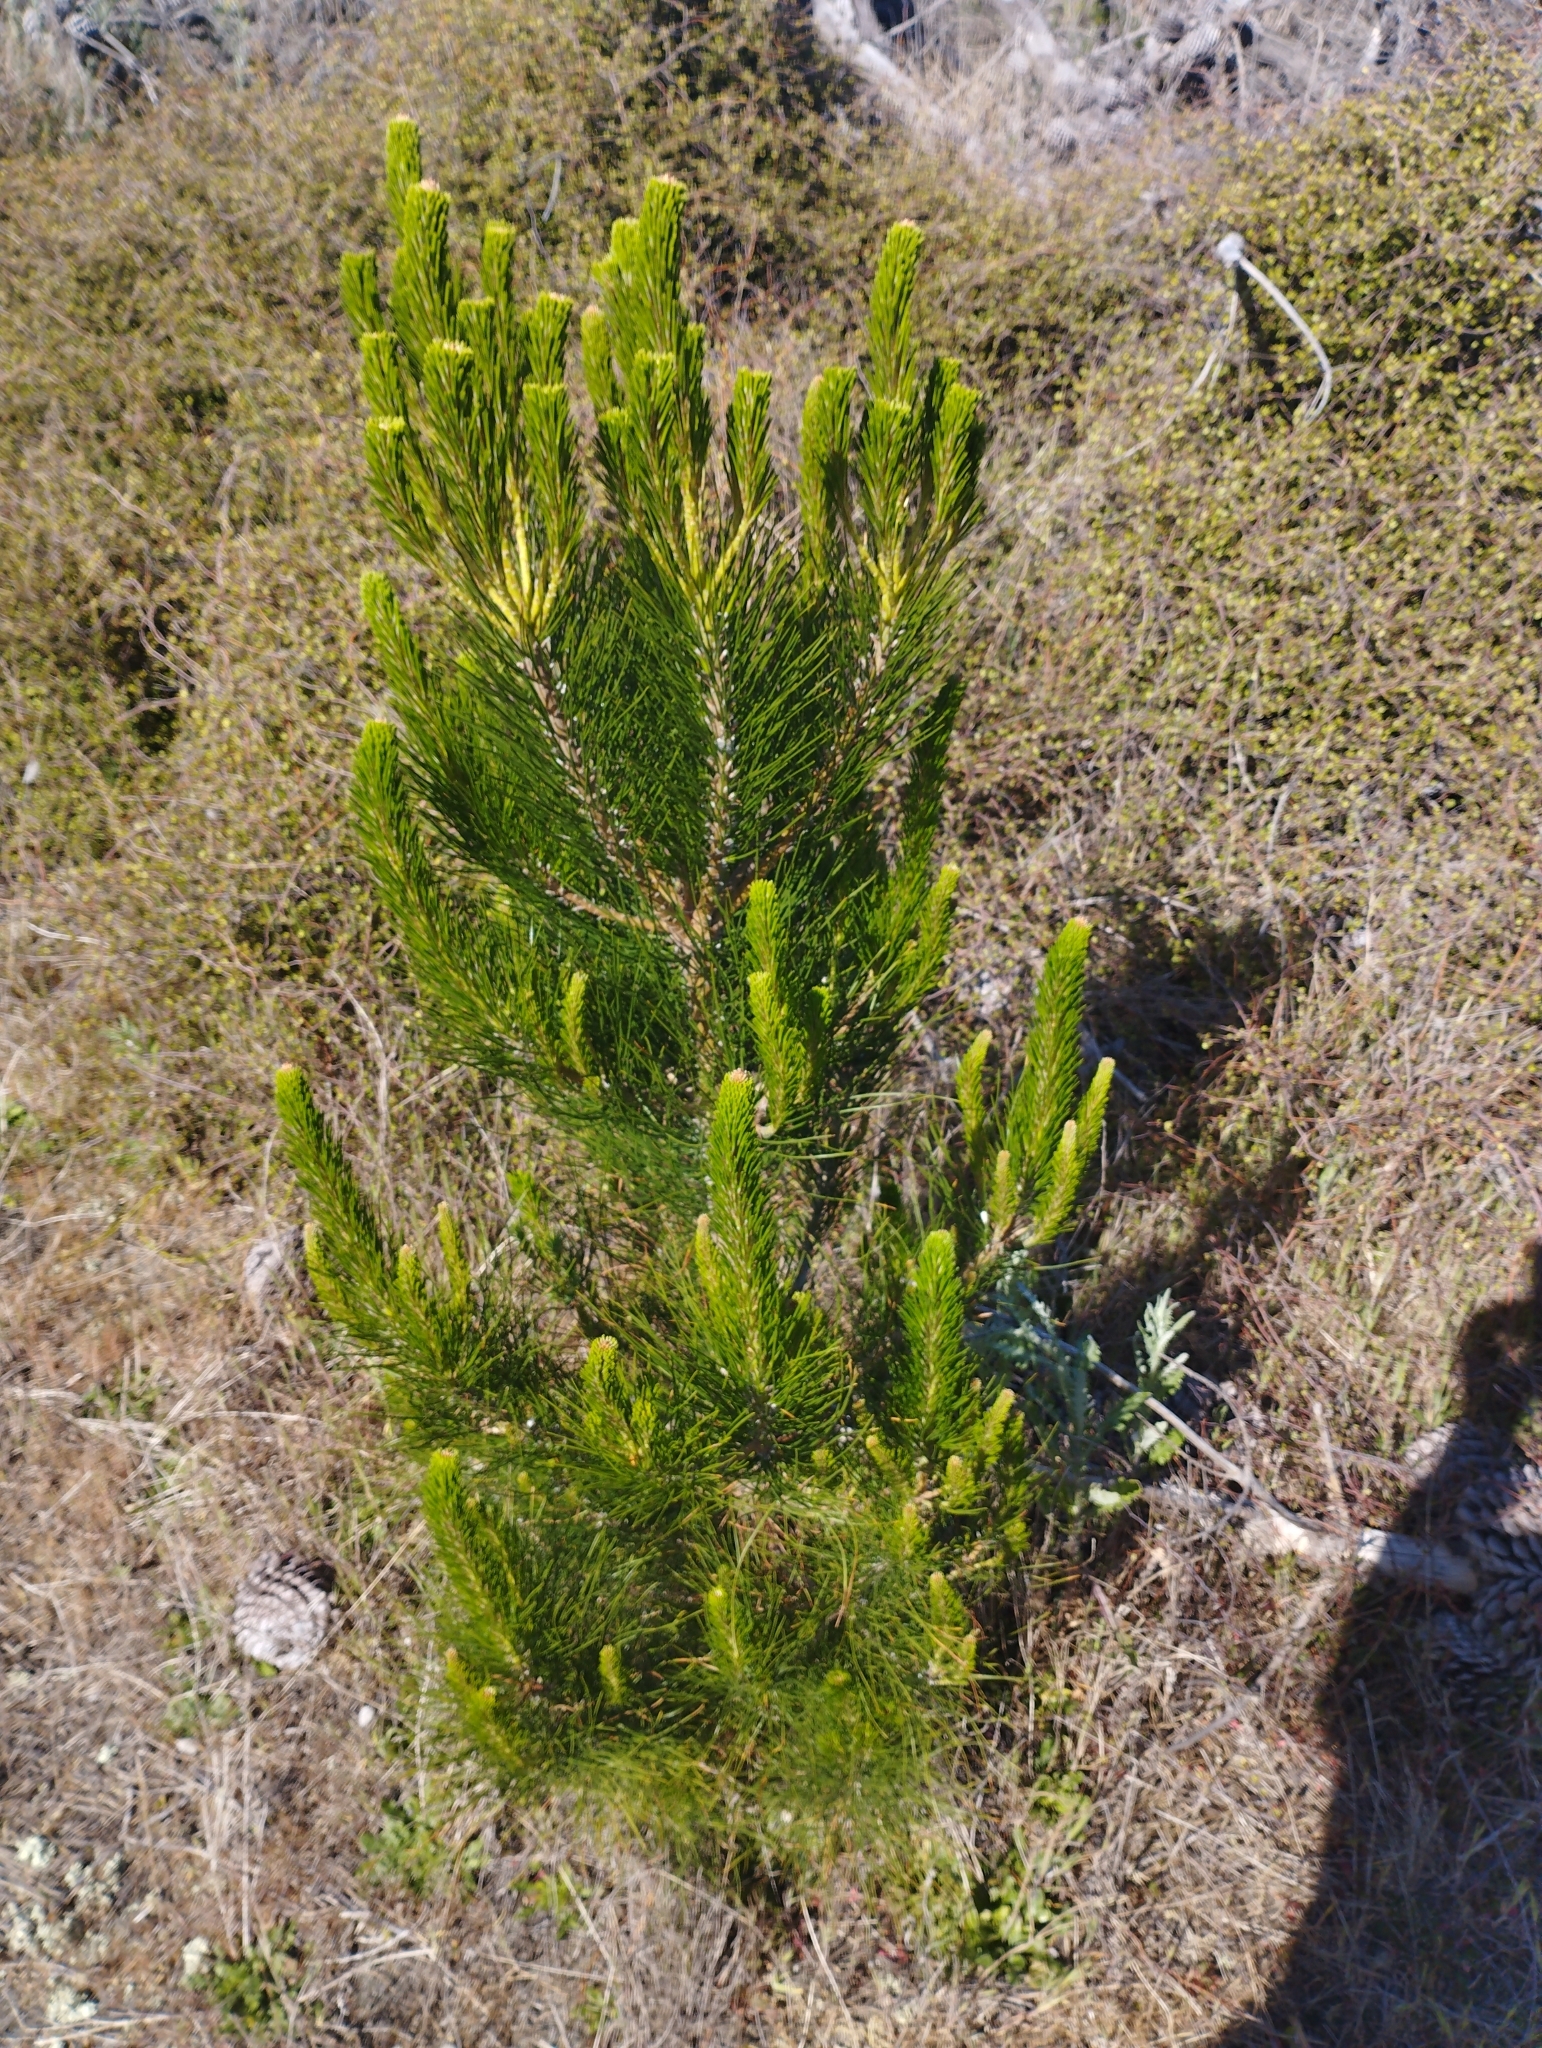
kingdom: Plantae
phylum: Tracheophyta
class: Pinopsida
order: Pinales
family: Pinaceae
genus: Pinus
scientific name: Pinus radiata
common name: Monterey pine
